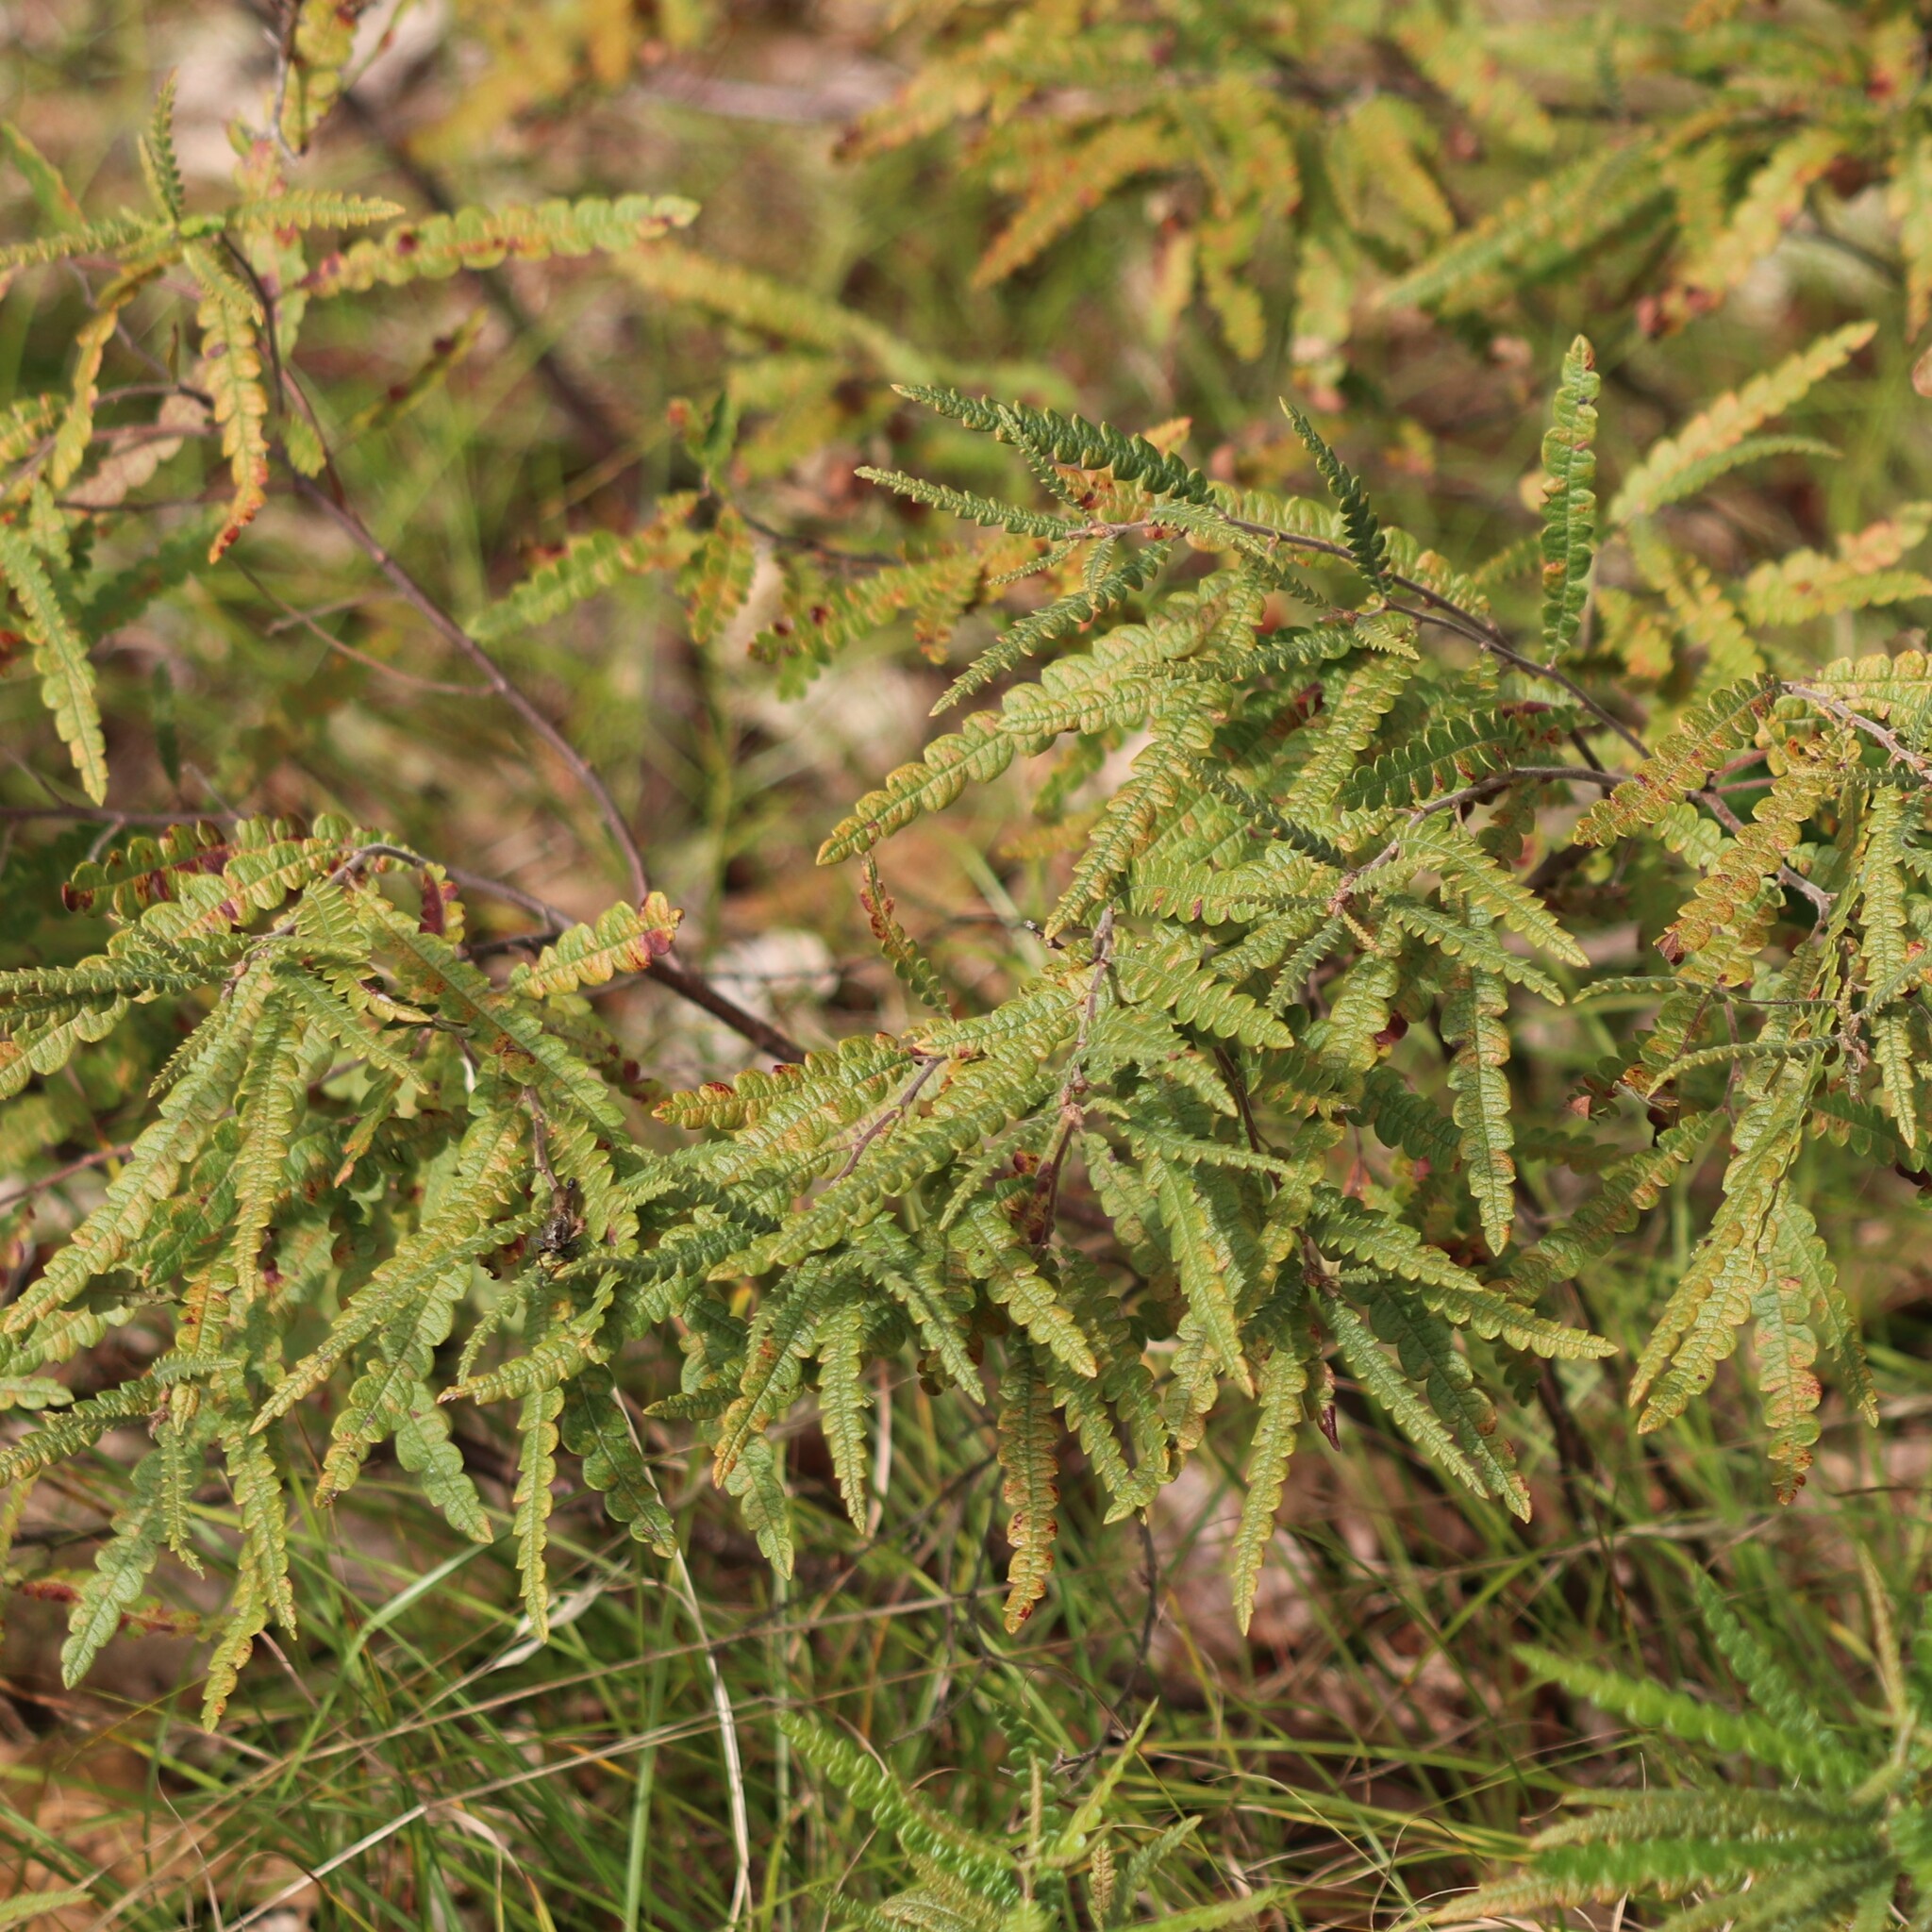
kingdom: Plantae
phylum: Tracheophyta
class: Magnoliopsida
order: Fagales
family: Myricaceae
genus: Comptonia
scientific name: Comptonia peregrina
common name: Sweet-fern
